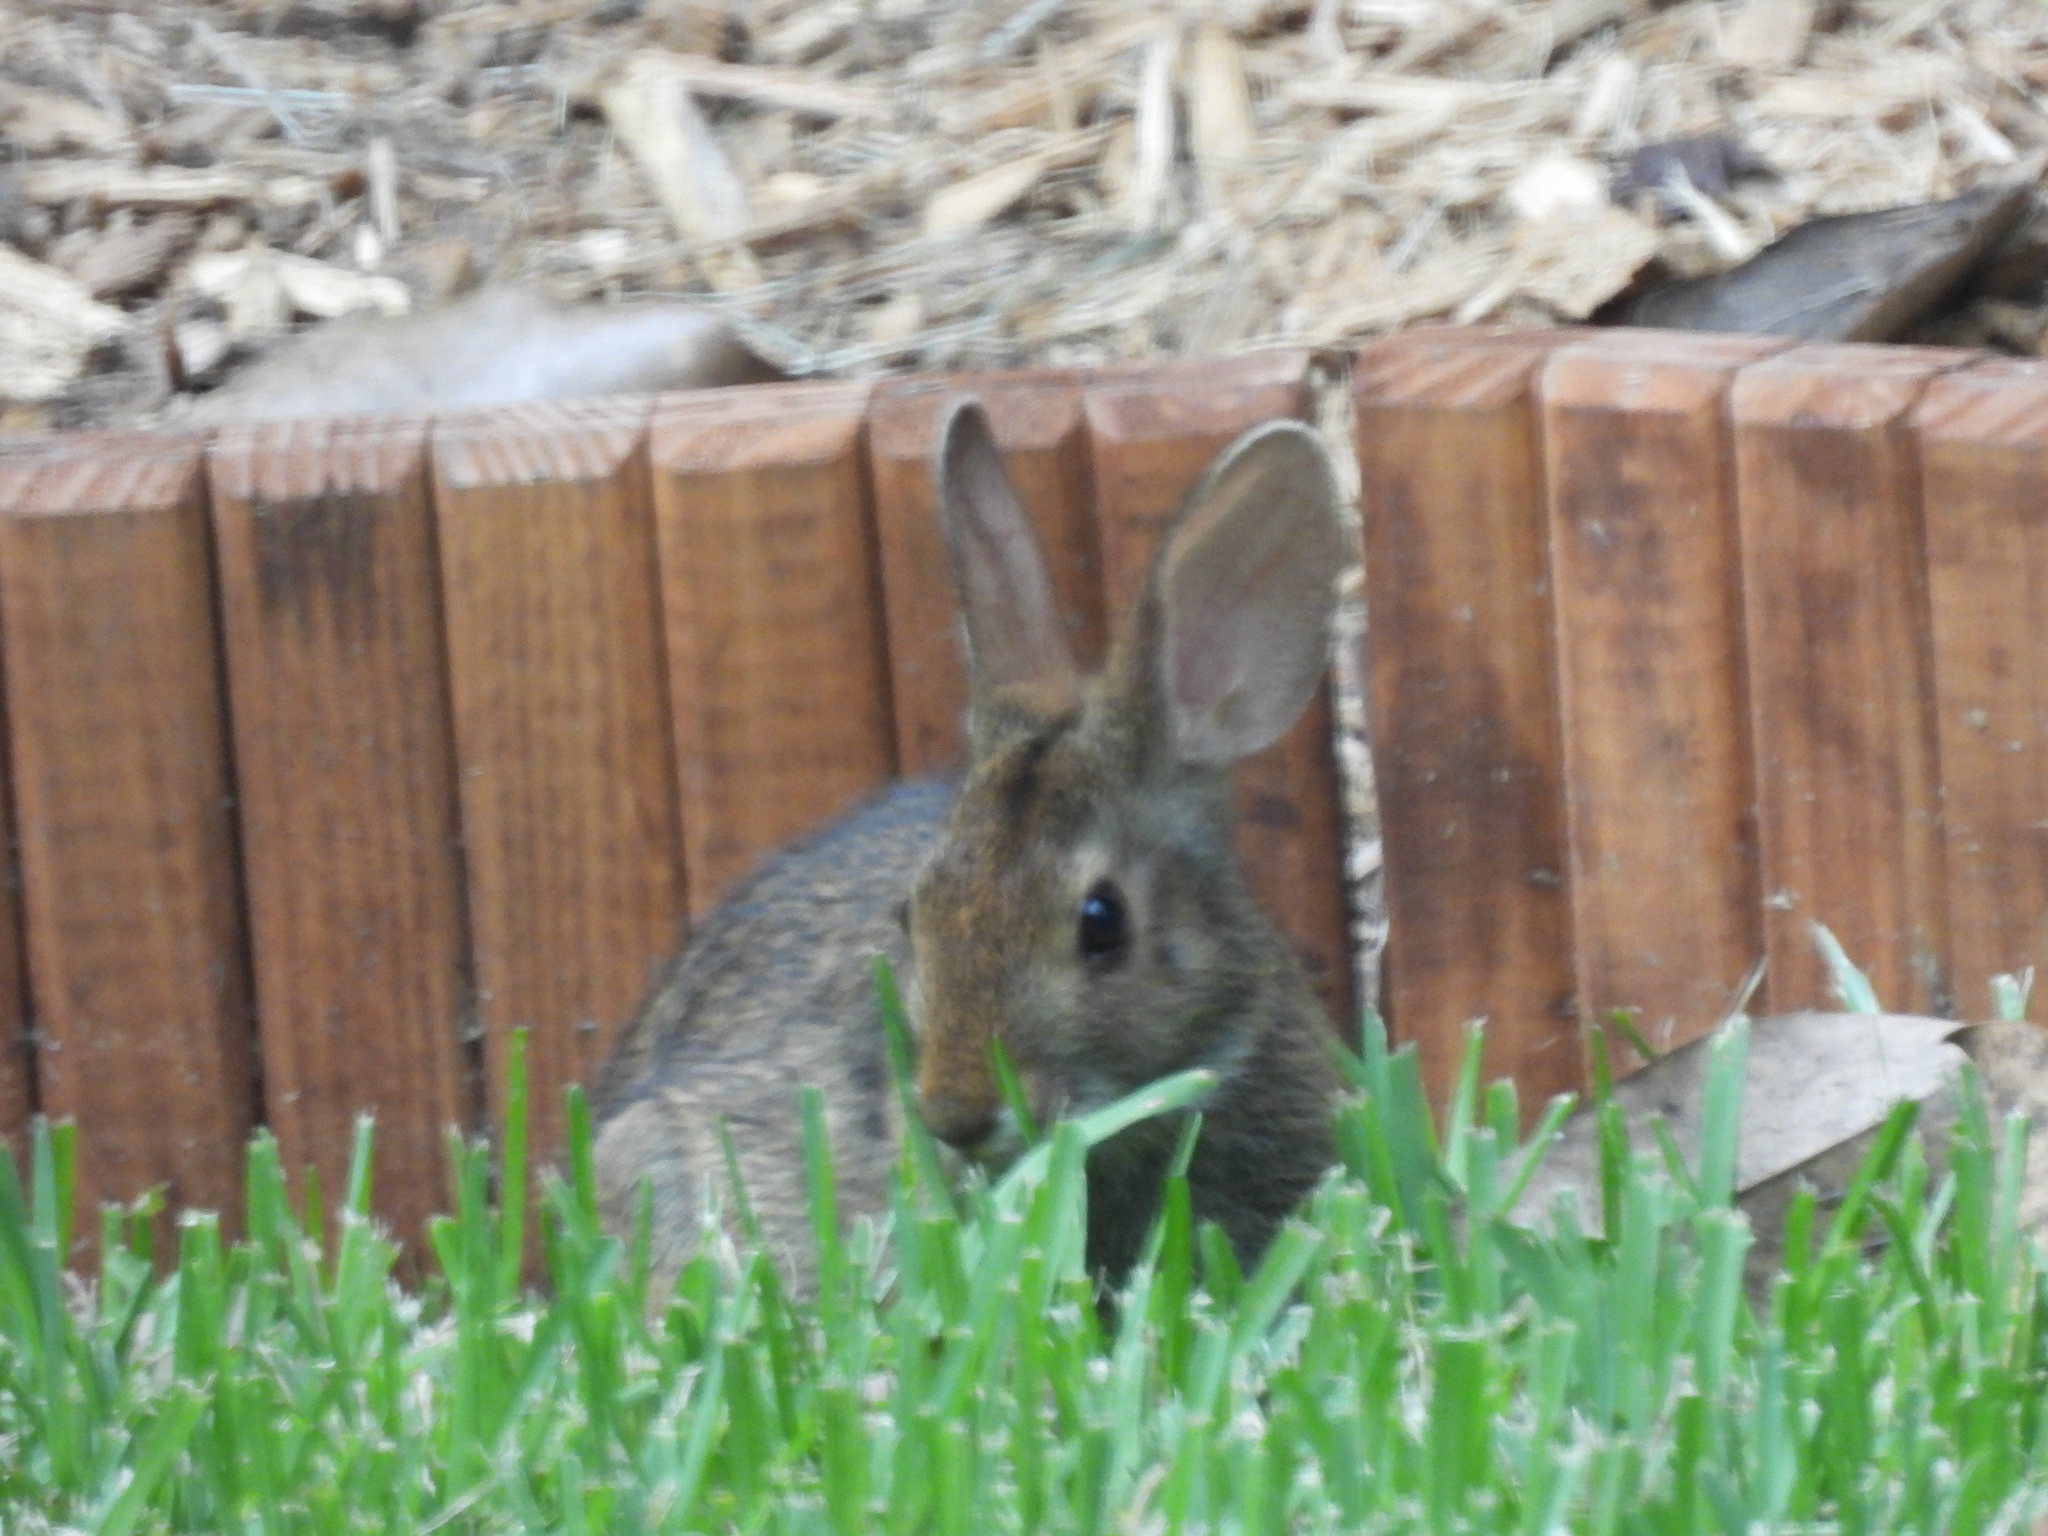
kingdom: Animalia
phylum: Chordata
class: Mammalia
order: Lagomorpha
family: Leporidae
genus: Sylvilagus
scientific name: Sylvilagus aquaticus
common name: Swamp rabbit
